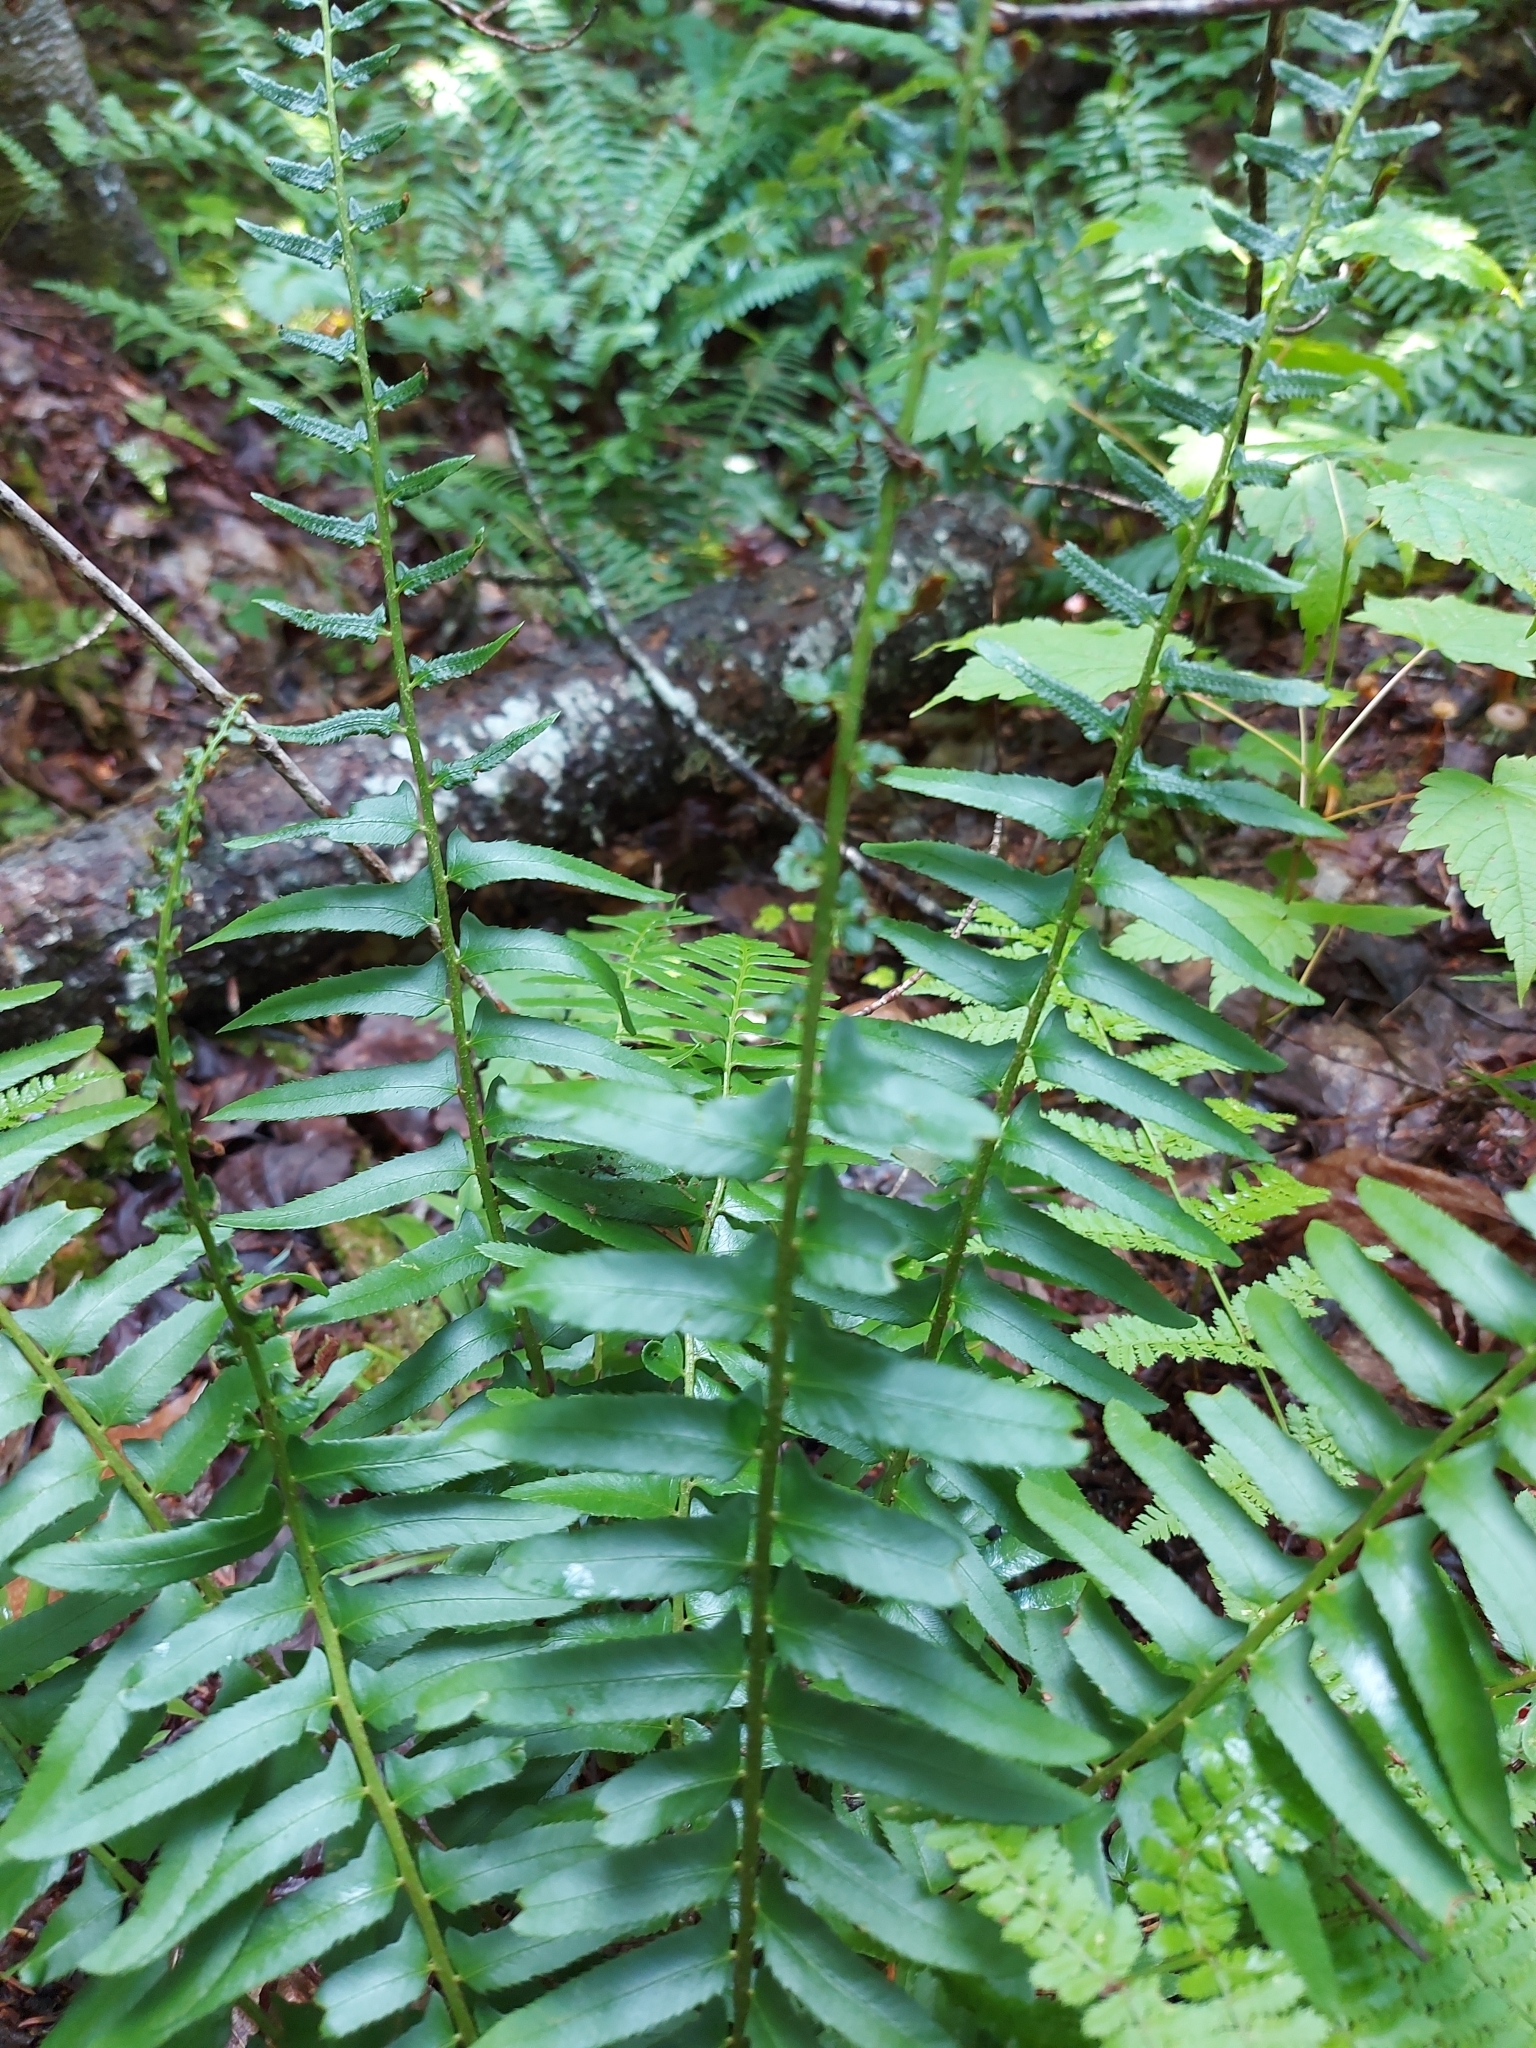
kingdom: Plantae
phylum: Tracheophyta
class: Polypodiopsida
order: Polypodiales
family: Dryopteridaceae
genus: Polystichum
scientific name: Polystichum acrostichoides
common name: Christmas fern
